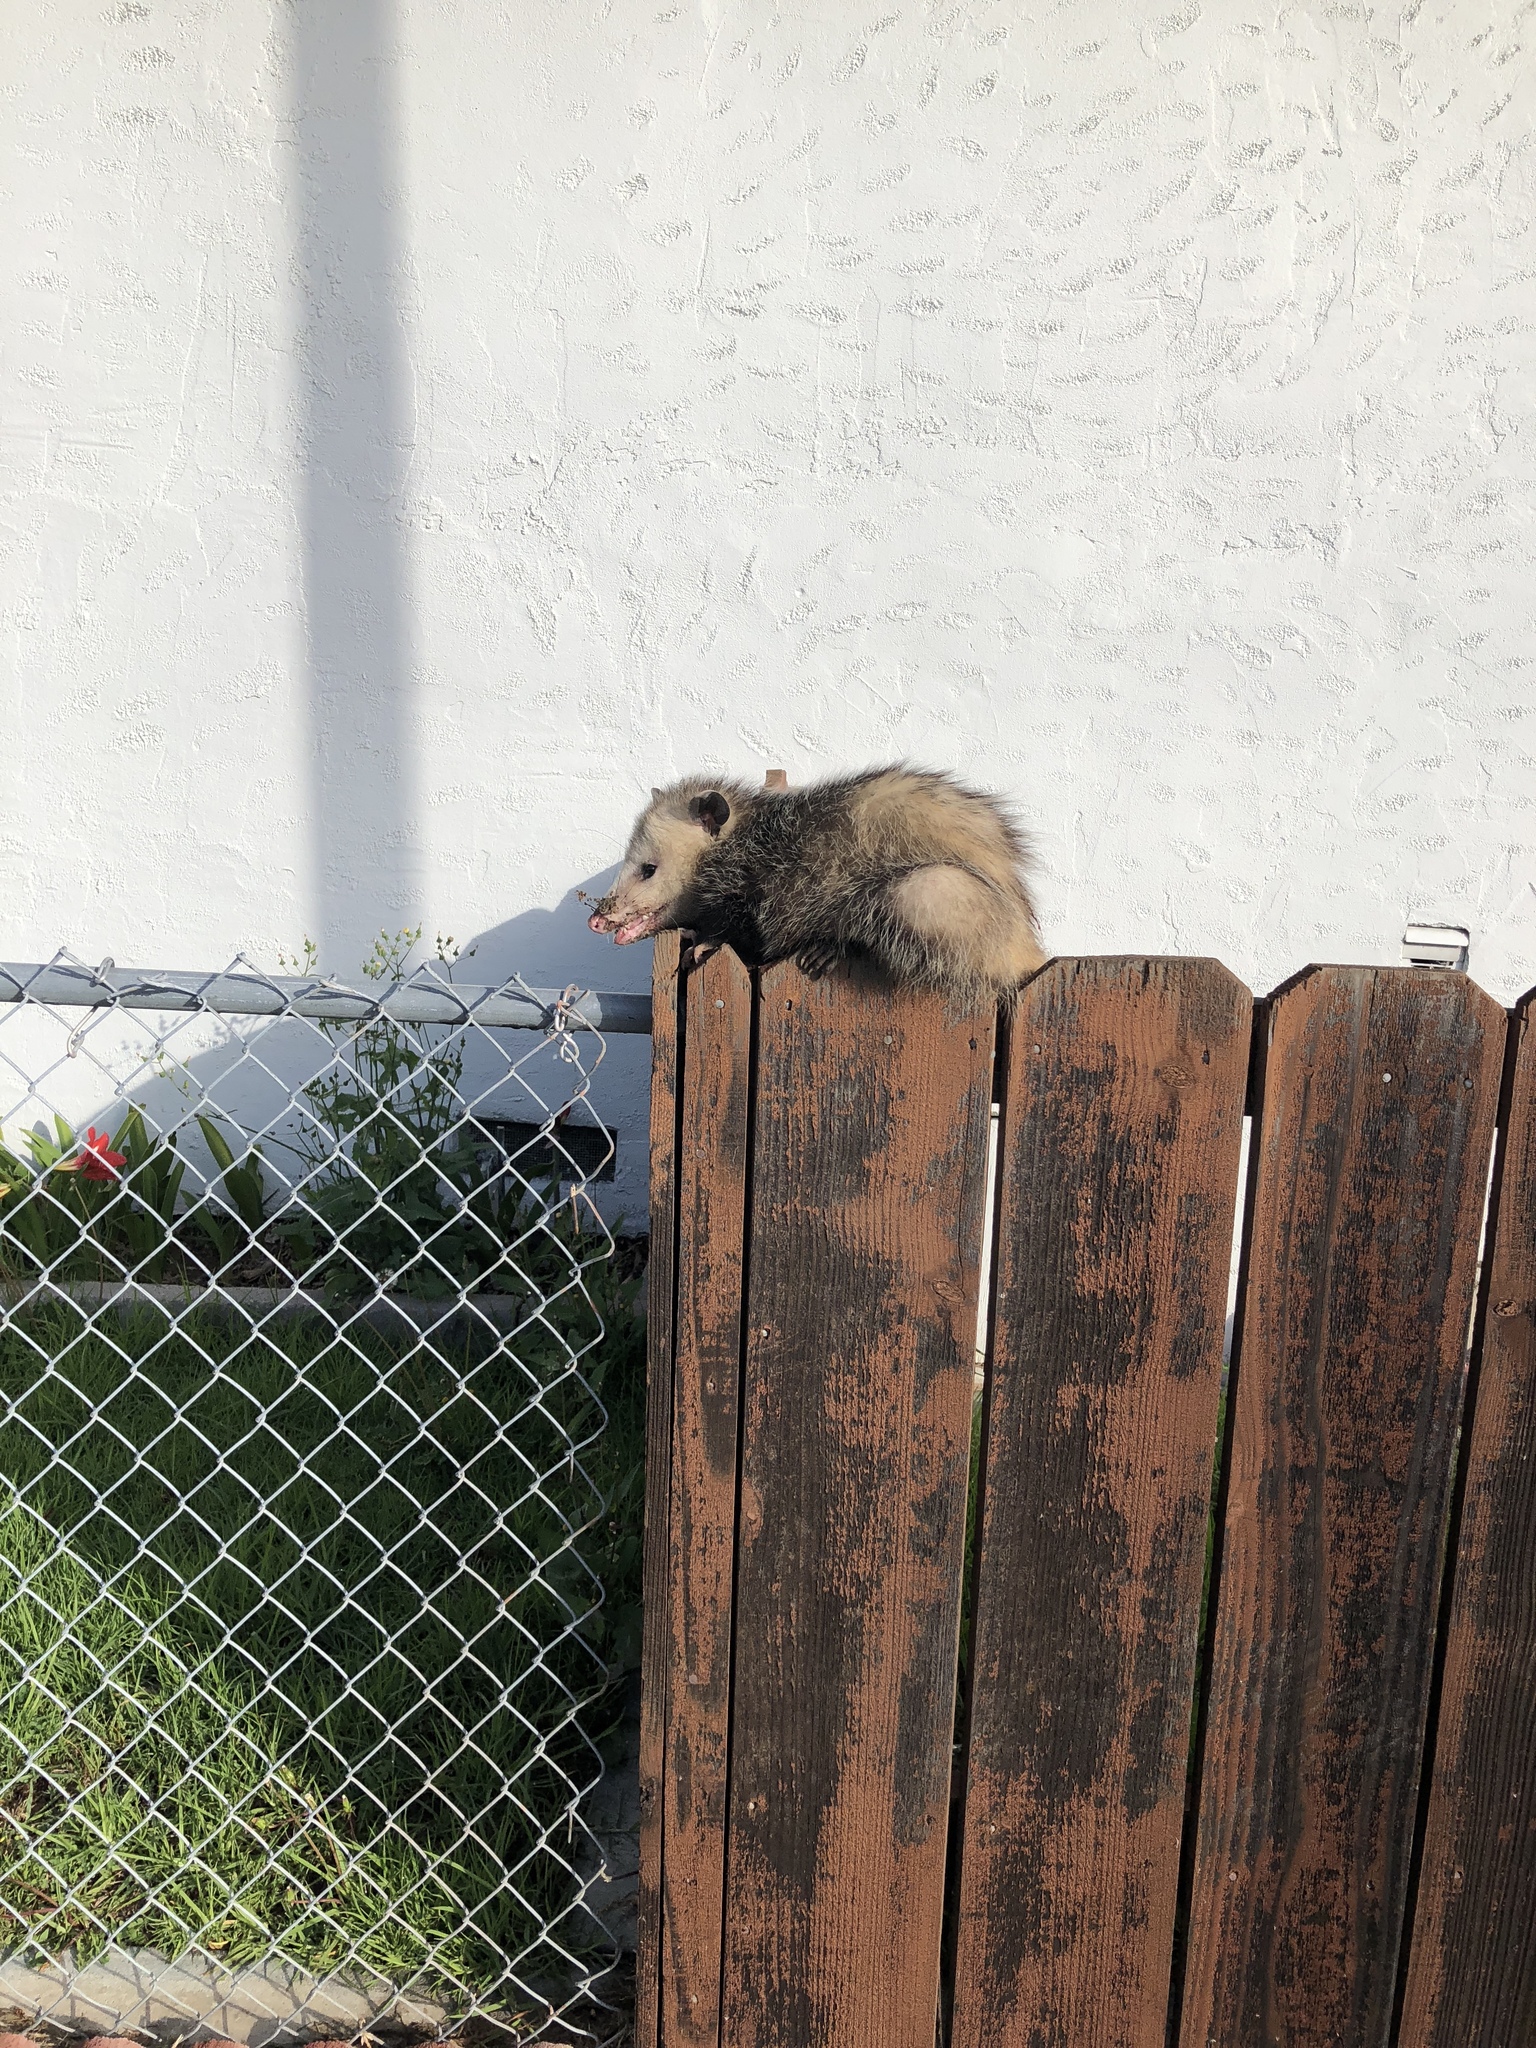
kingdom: Animalia
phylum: Chordata
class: Mammalia
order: Didelphimorphia
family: Didelphidae
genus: Didelphis
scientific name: Didelphis virginiana
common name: Virginia opossum
